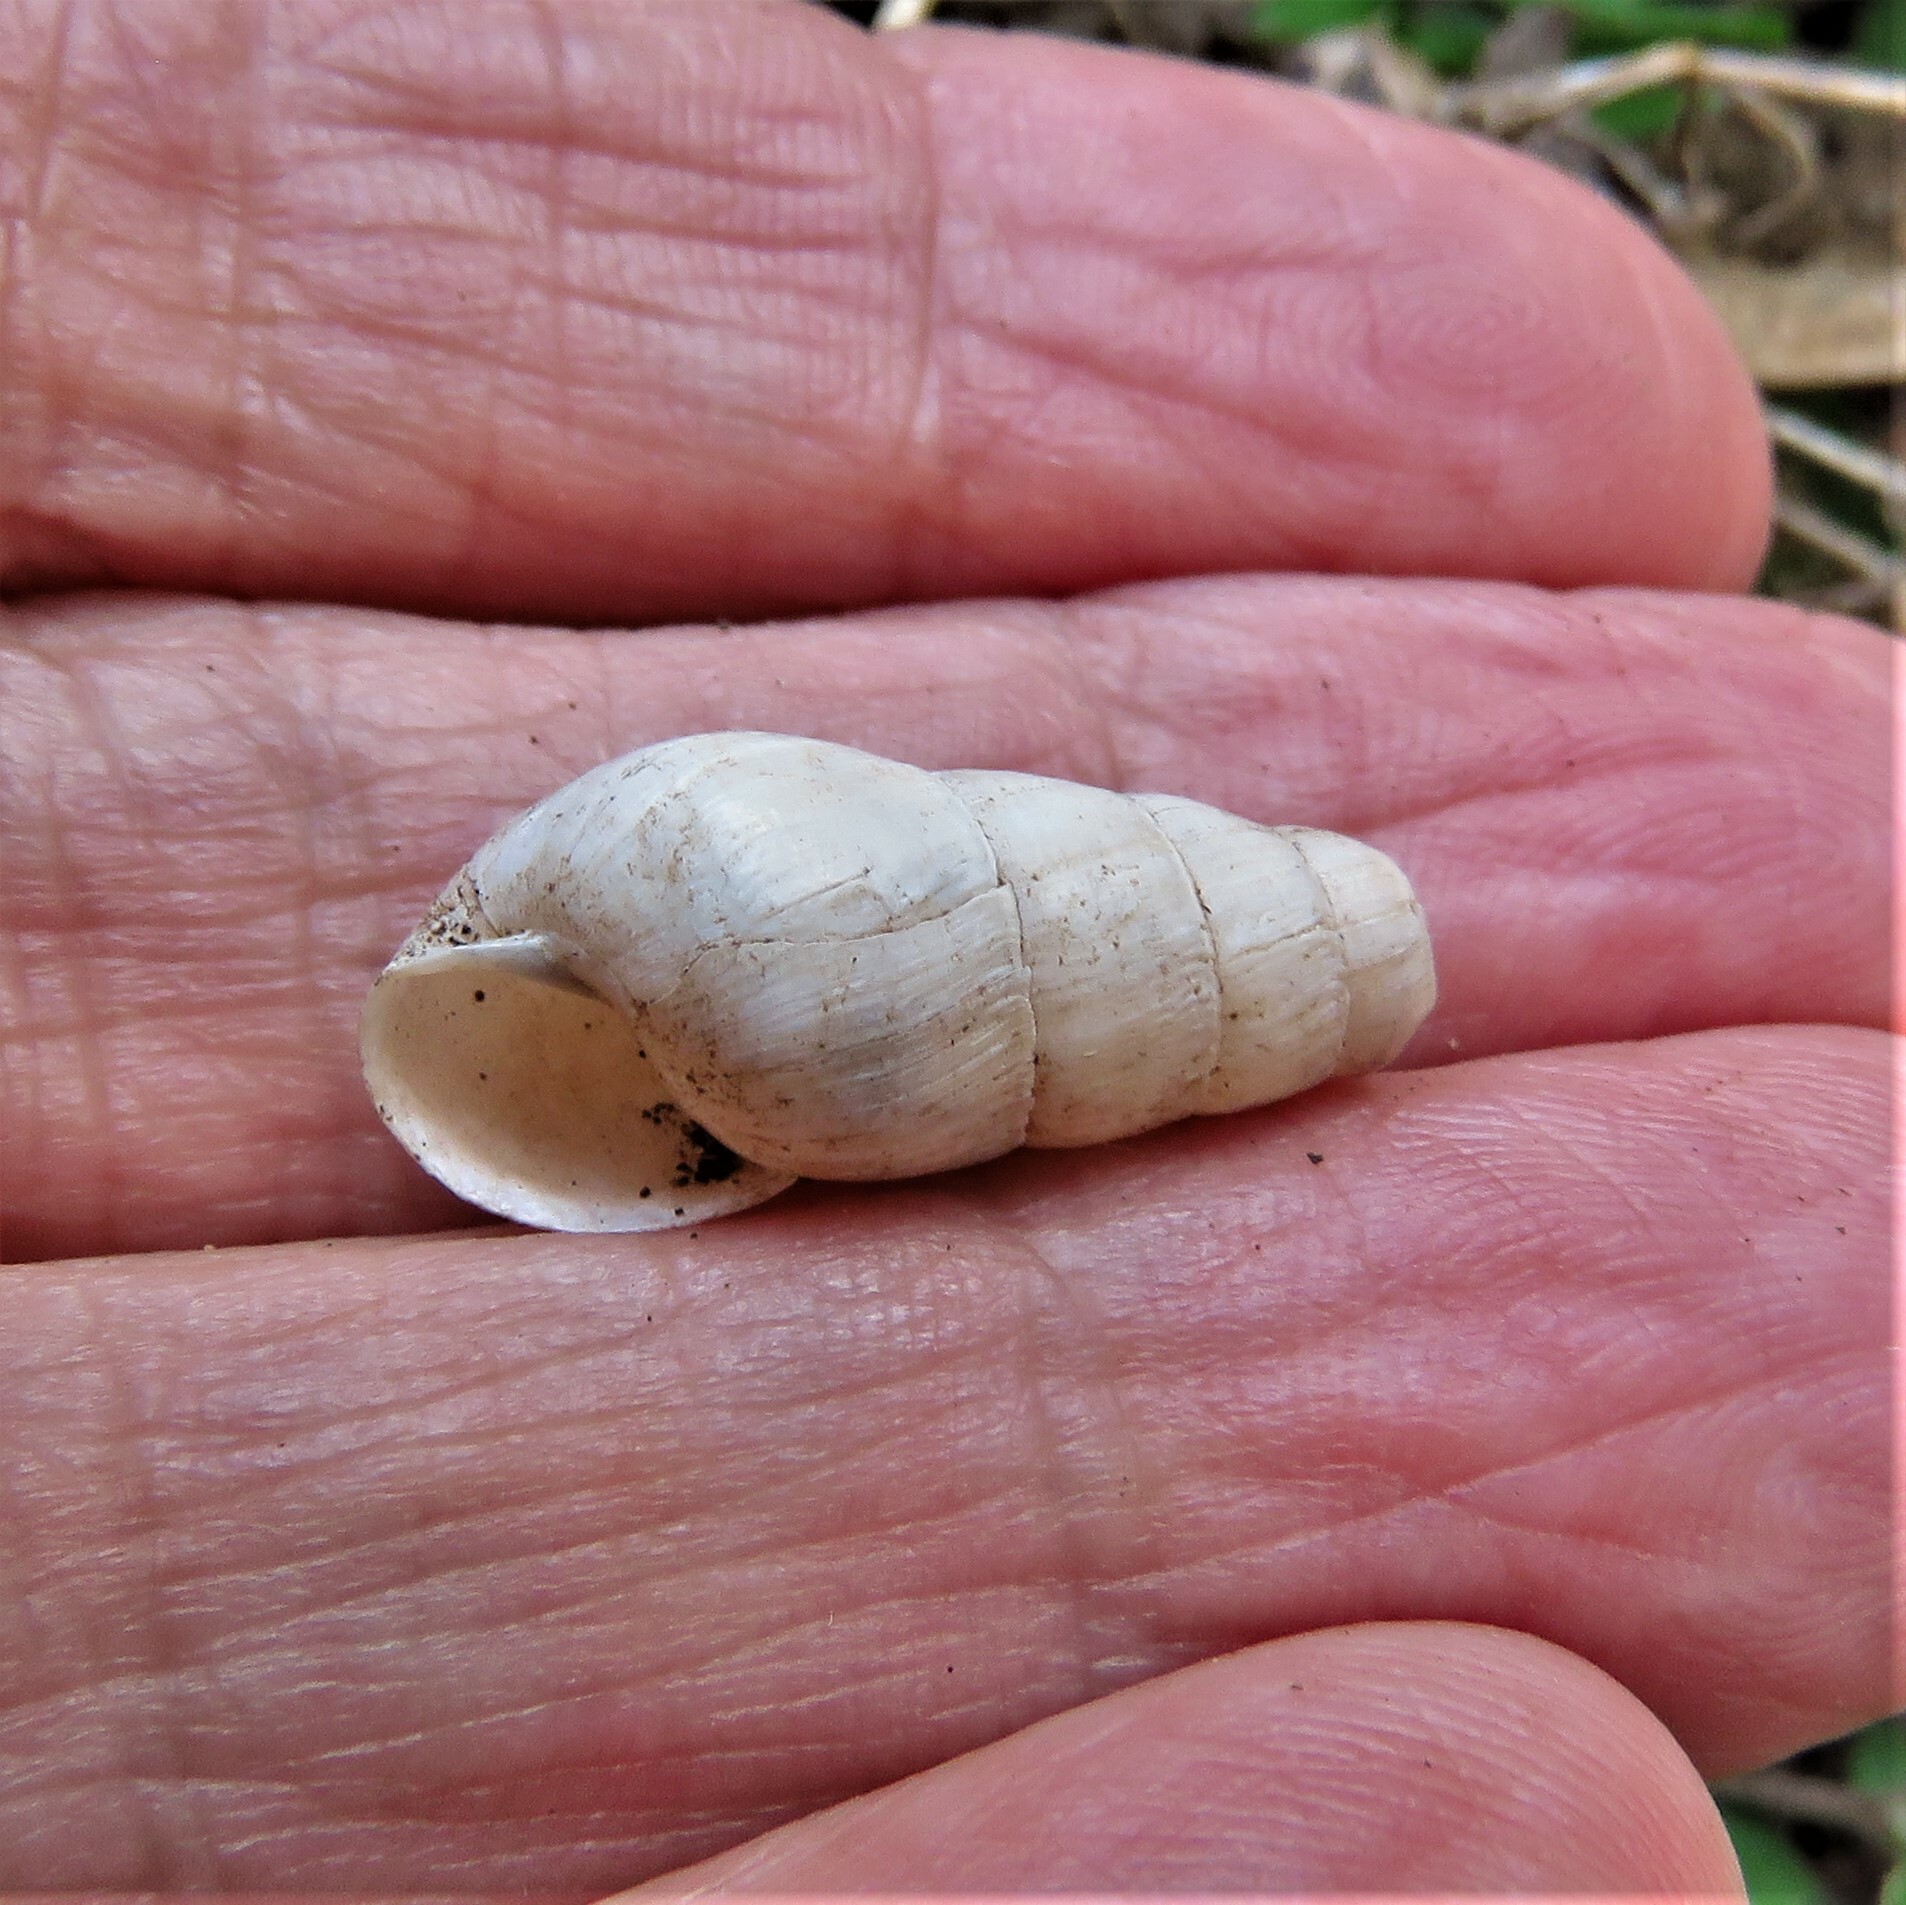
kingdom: Animalia
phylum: Mollusca
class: Gastropoda
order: Stylommatophora
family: Achatinidae
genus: Rumina
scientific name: Rumina decollata
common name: Decollate snail
